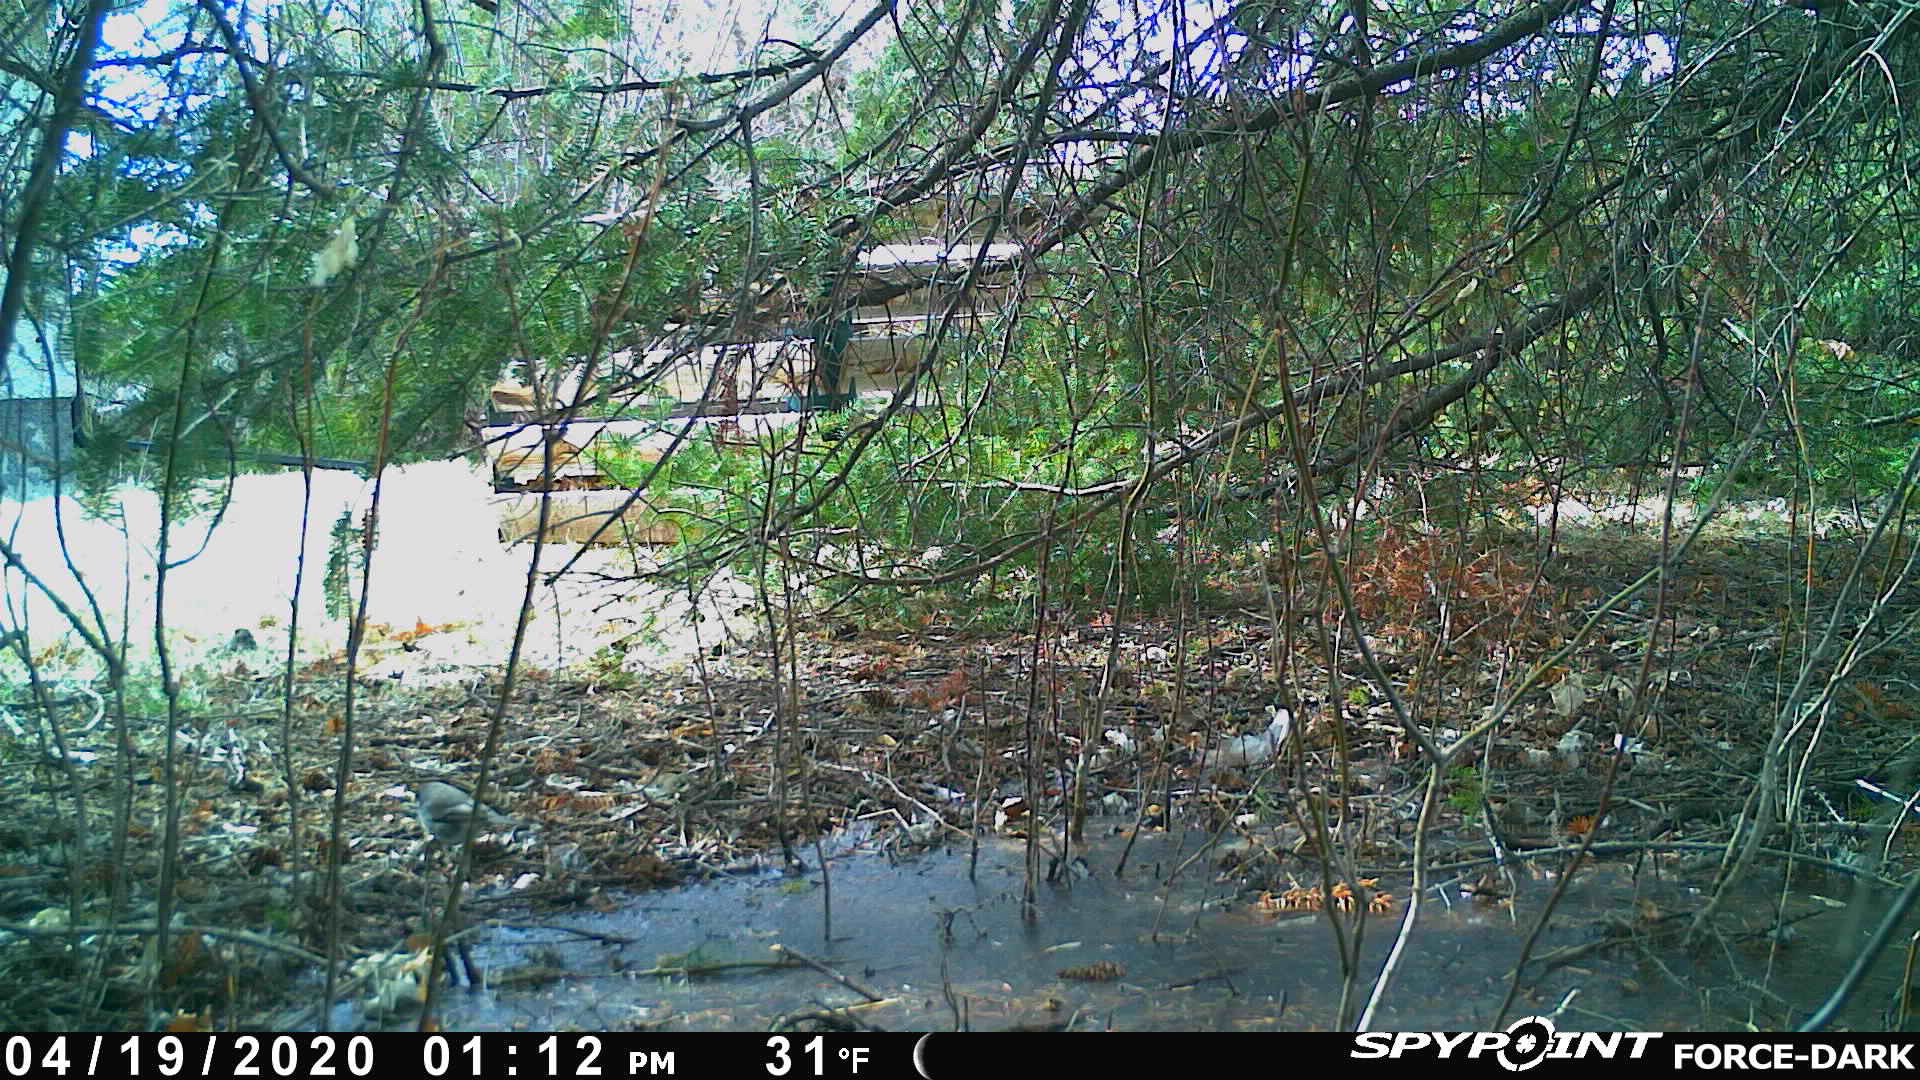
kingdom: Animalia
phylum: Chordata
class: Aves
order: Passeriformes
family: Passerellidae
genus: Junco
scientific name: Junco hyemalis
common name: Dark-eyed junco
